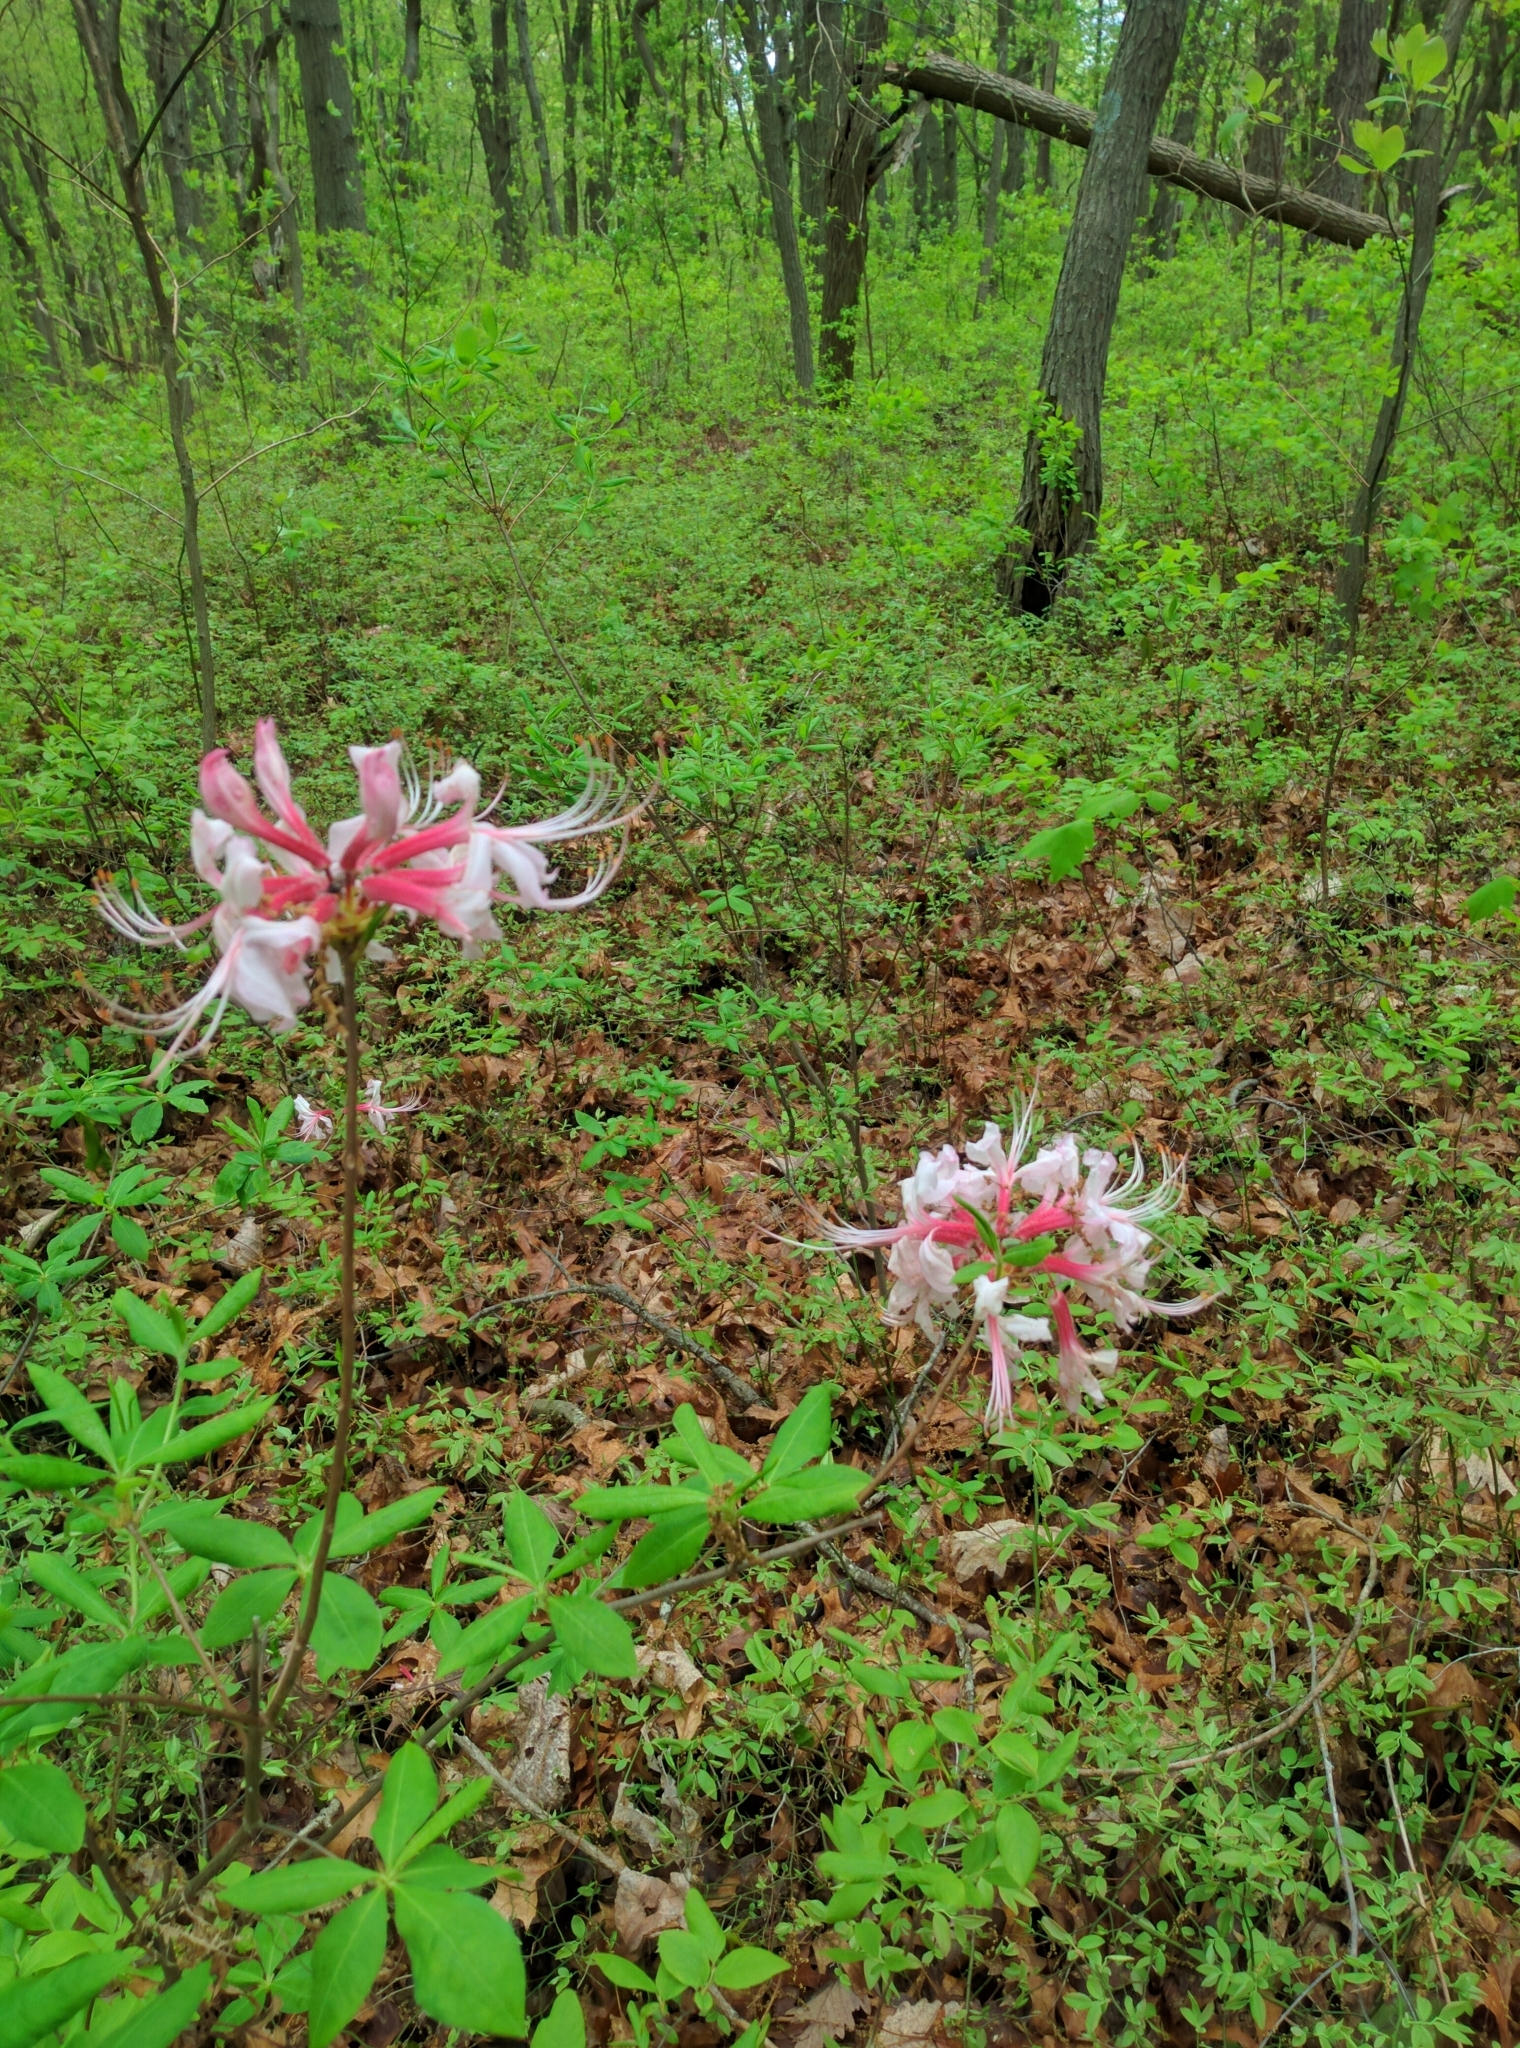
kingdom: Plantae
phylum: Tracheophyta
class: Magnoliopsida
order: Ericales
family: Ericaceae
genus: Rhododendron
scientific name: Rhododendron periclymenoides
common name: Election-pink
